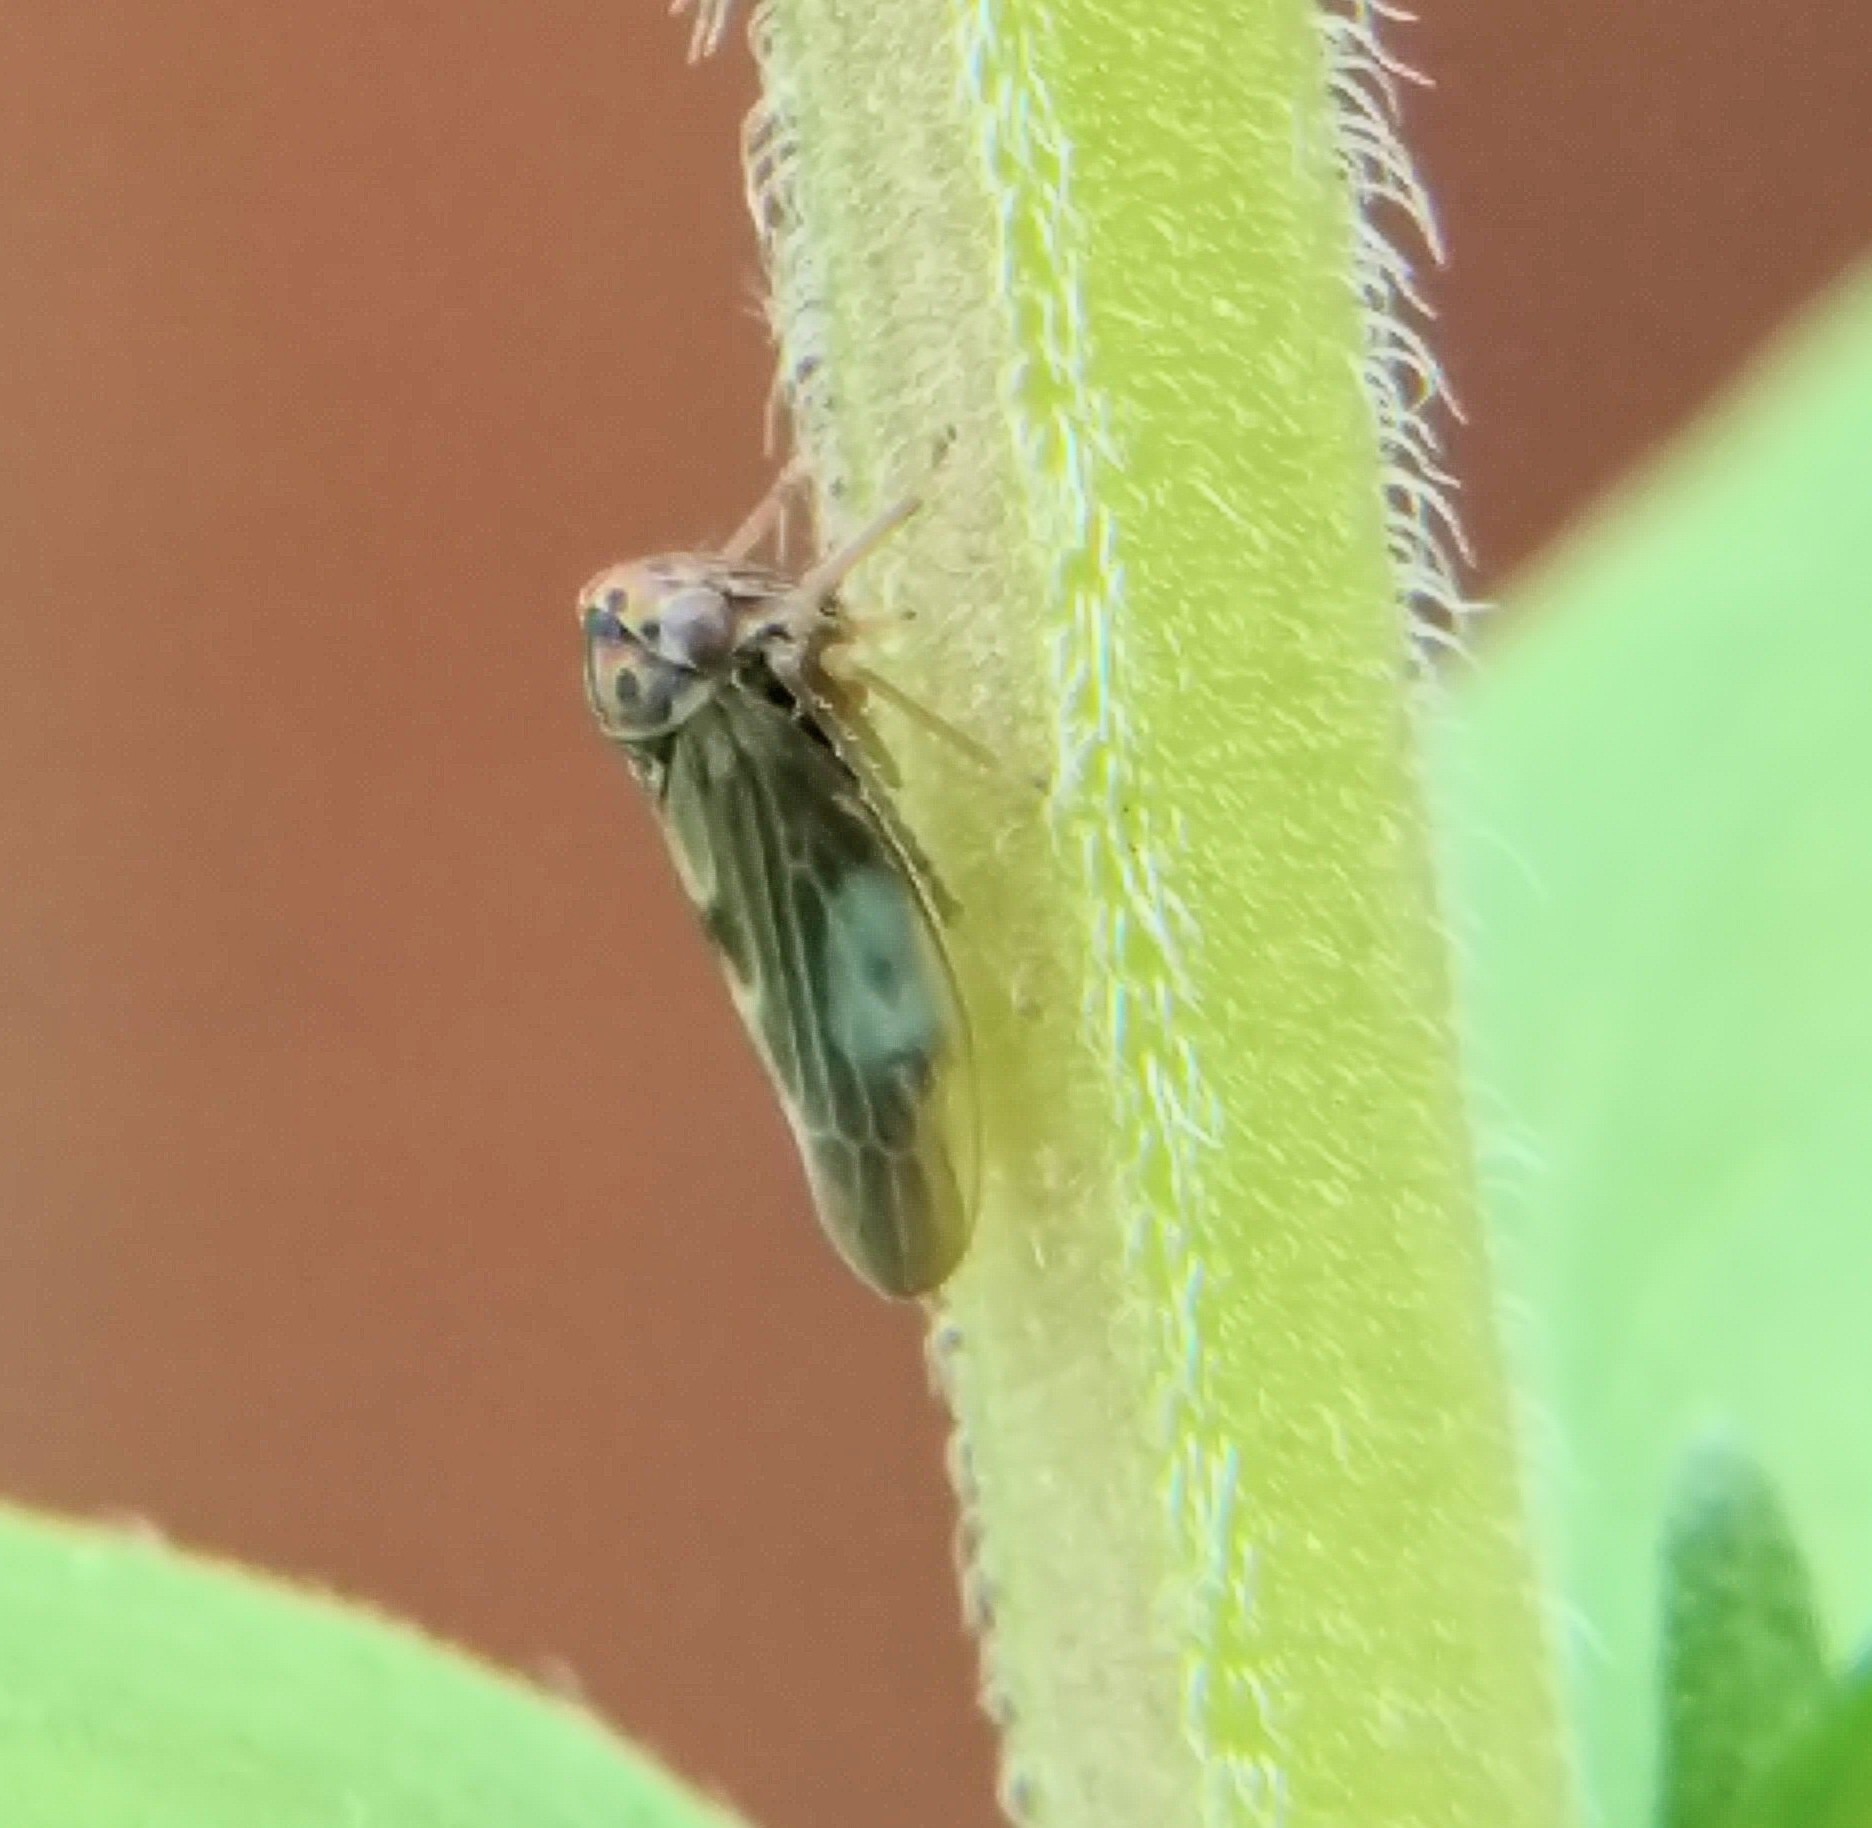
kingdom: Animalia
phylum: Arthropoda
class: Insecta
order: Hemiptera
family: Cicadellidae
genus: Agalliopsis
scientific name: Agalliopsis novella
